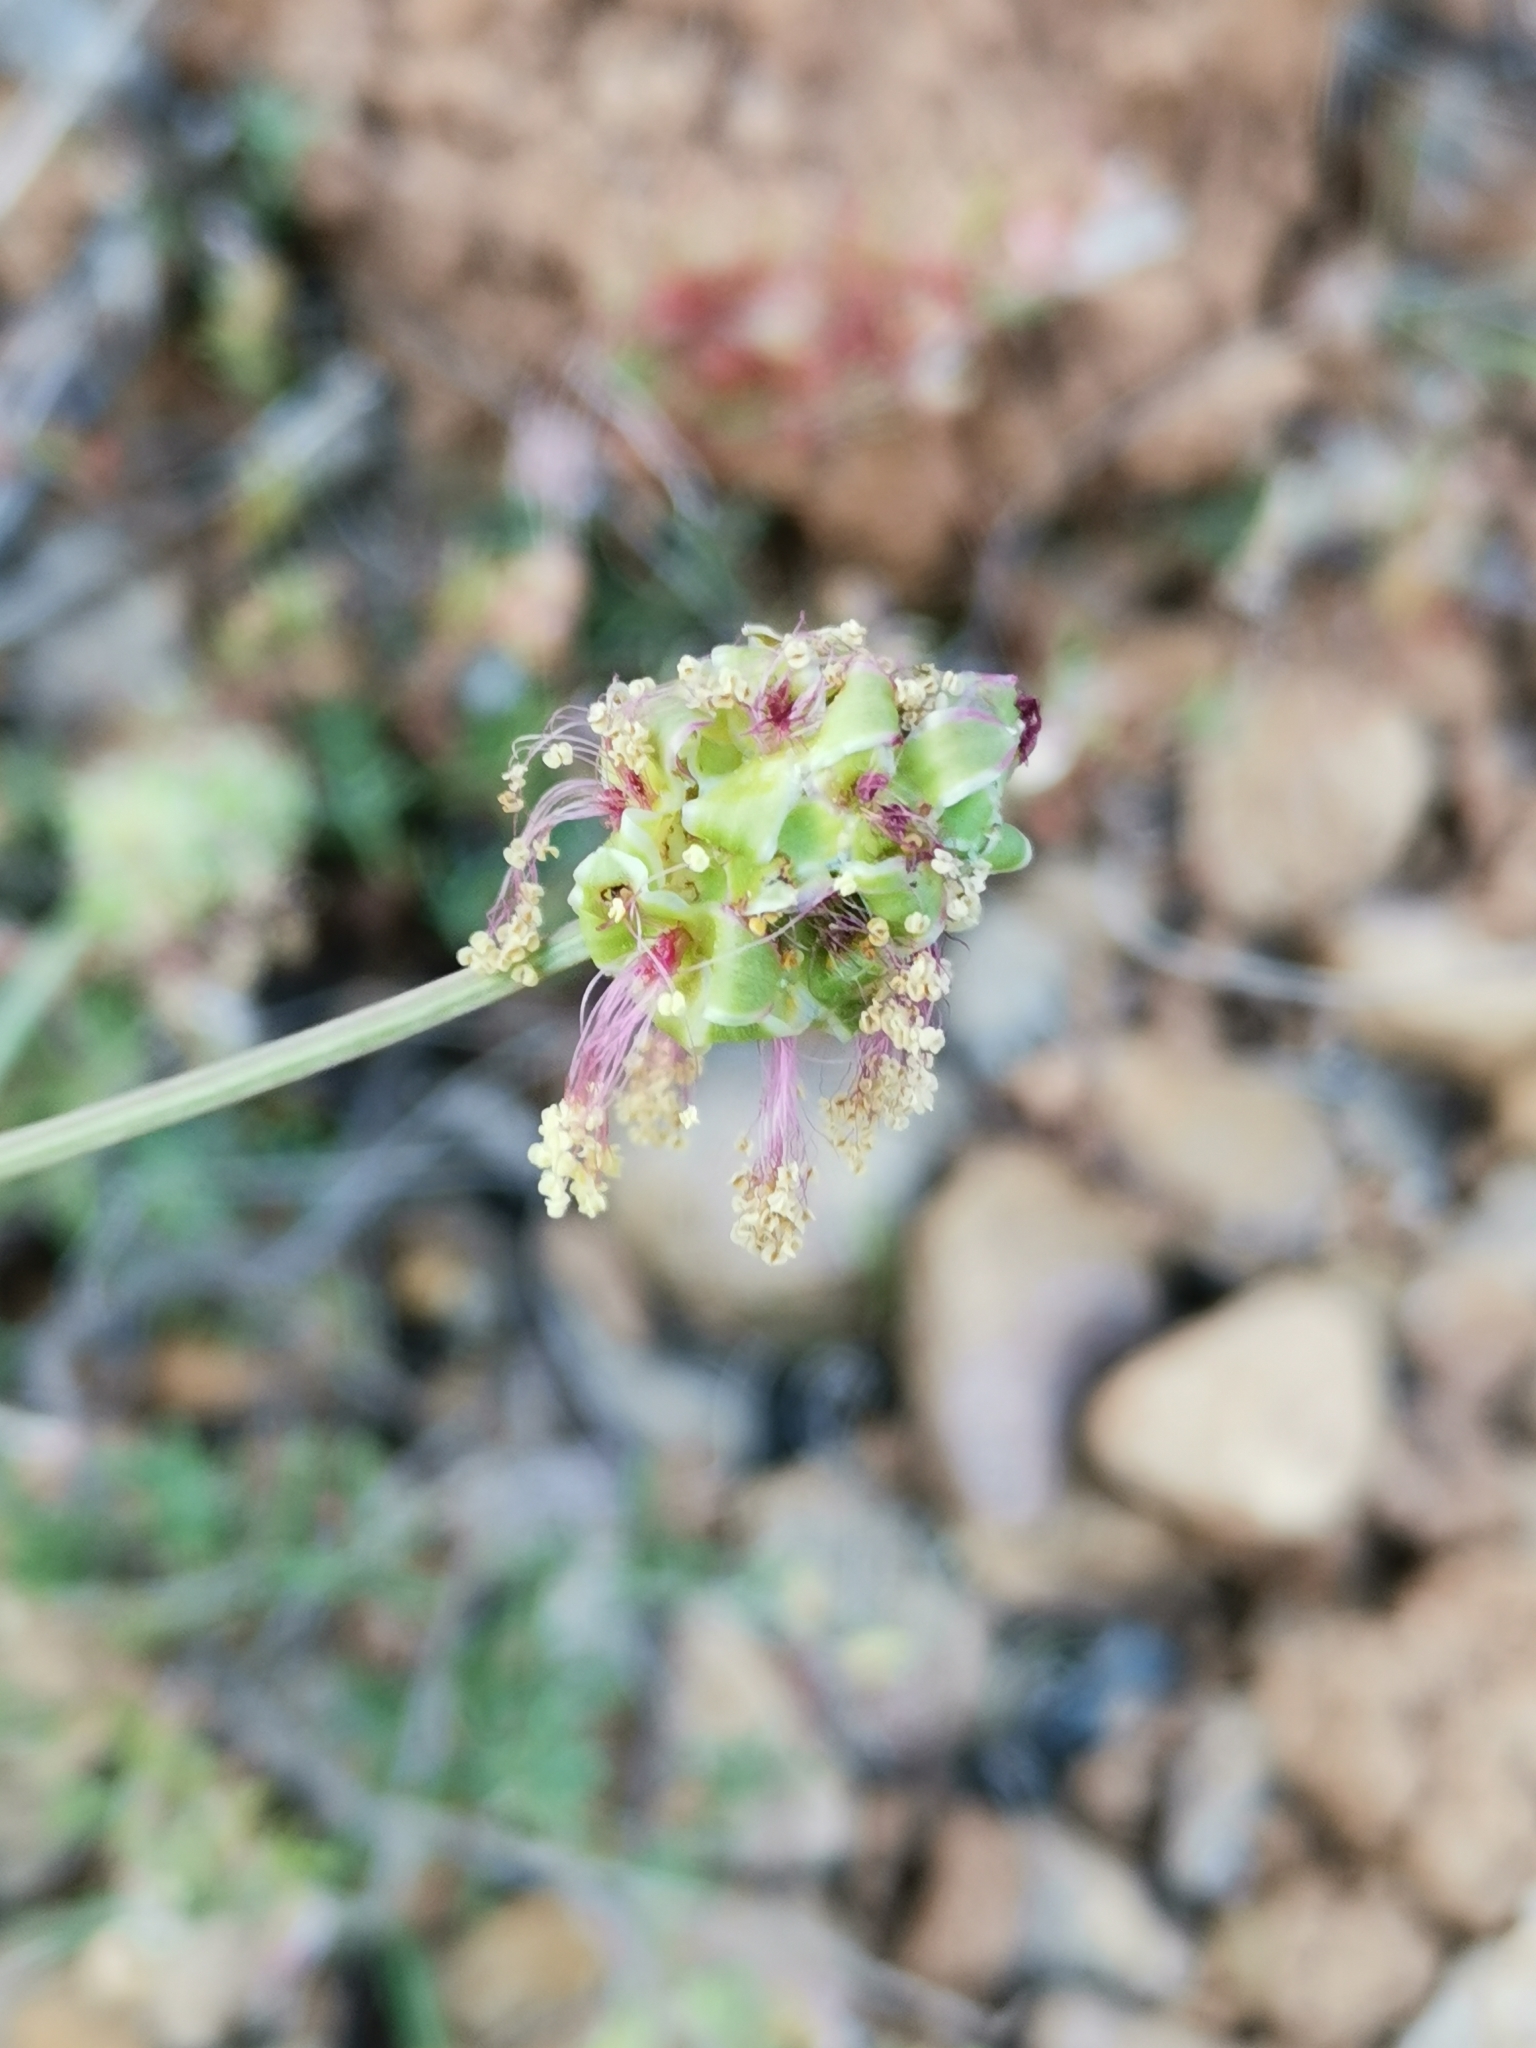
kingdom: Plantae
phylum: Tracheophyta
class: Magnoliopsida
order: Rosales
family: Rosaceae
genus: Poterium
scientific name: Poterium sanguisorba
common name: Salad burnet
